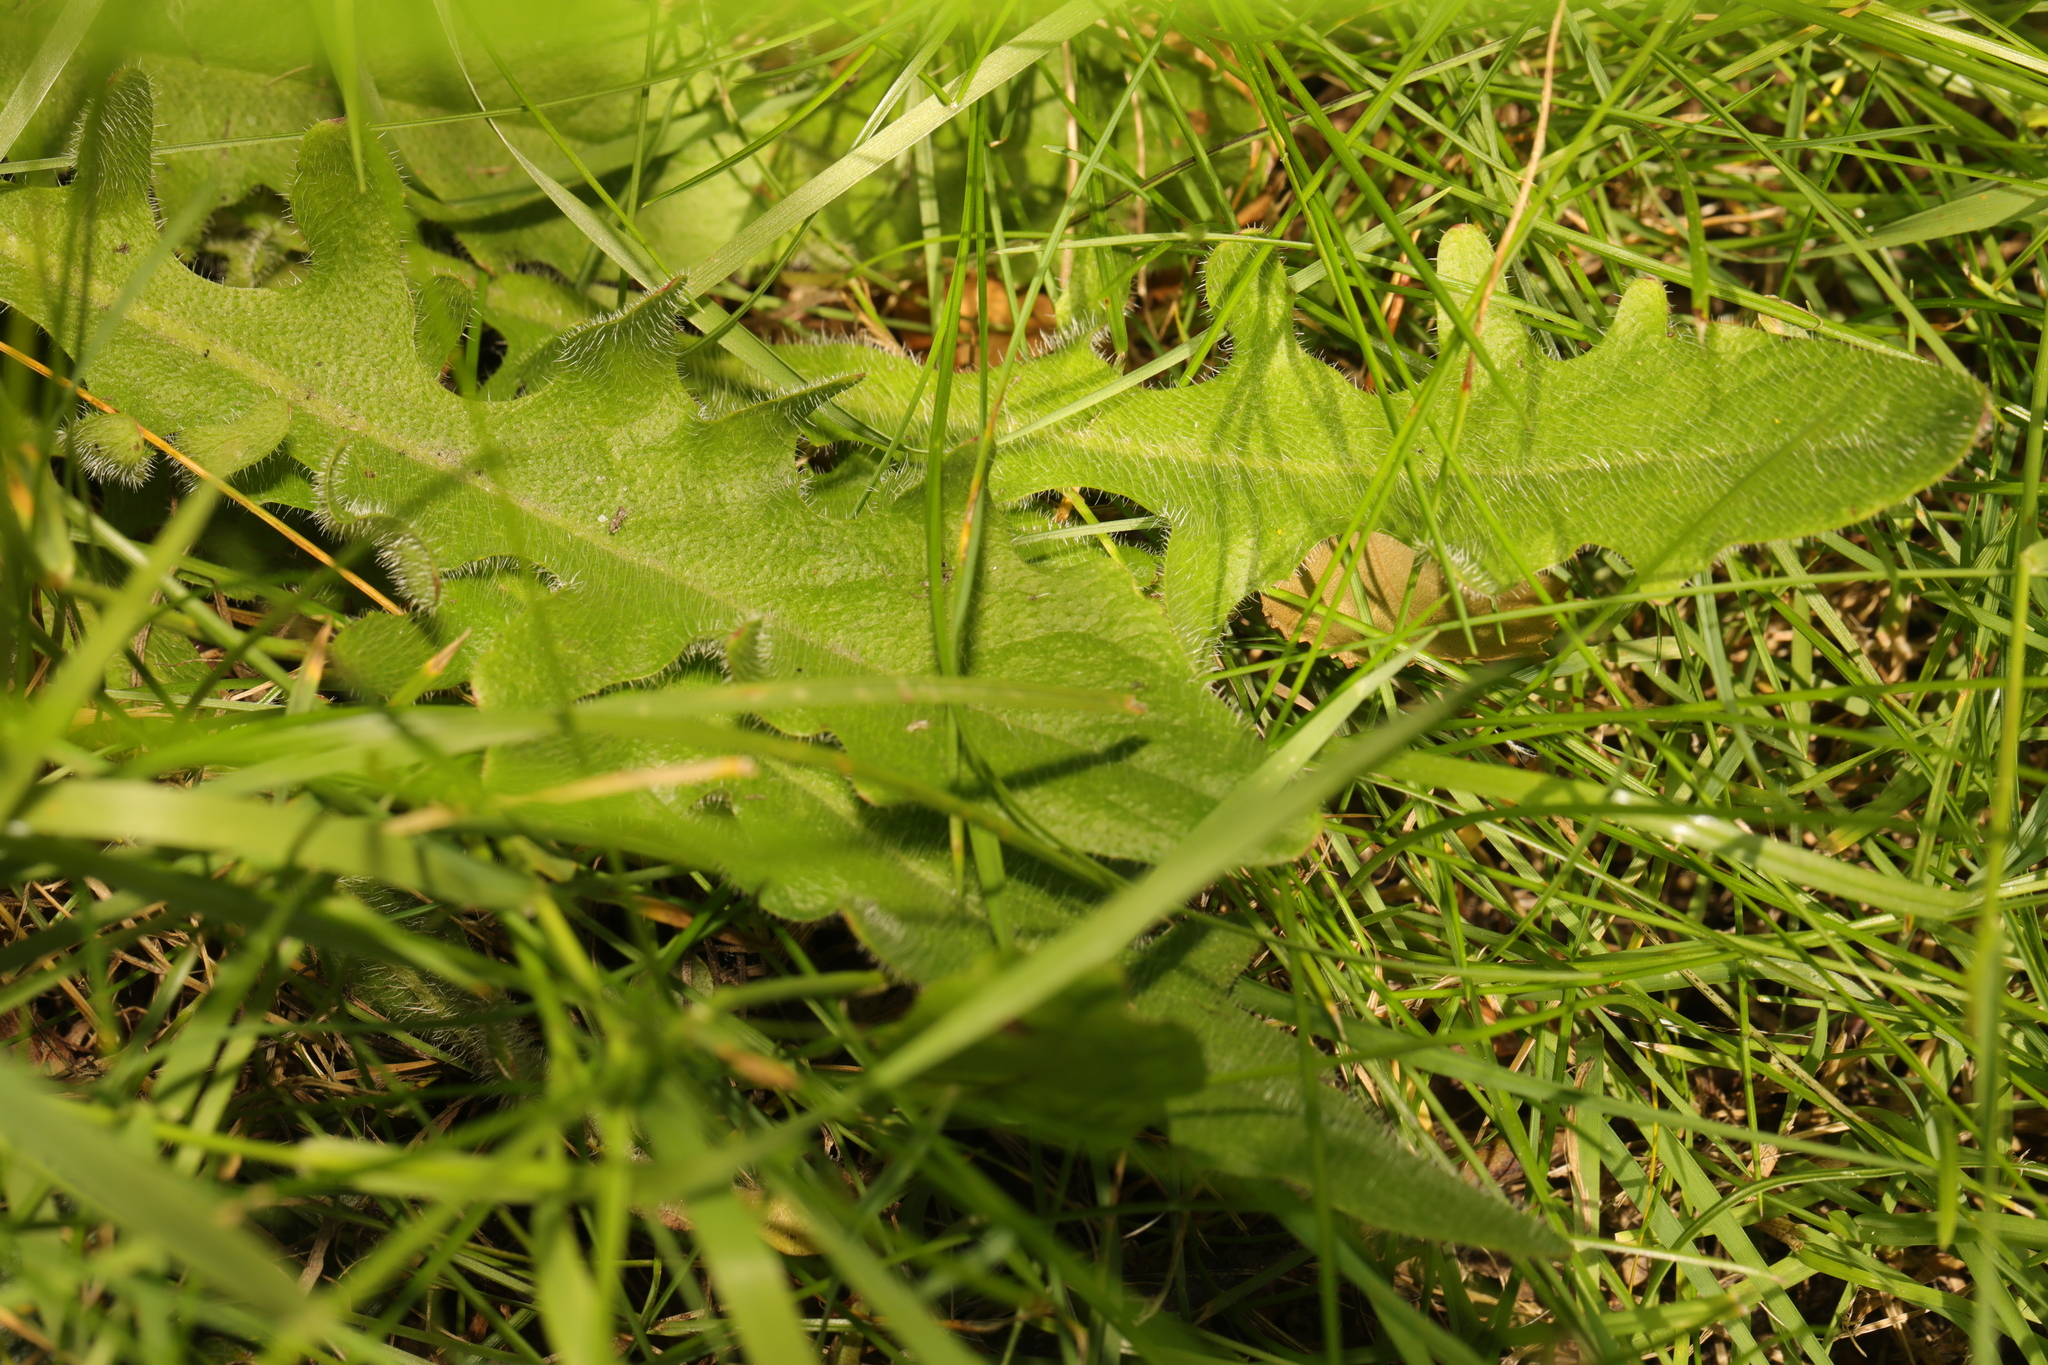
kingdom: Plantae
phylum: Tracheophyta
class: Magnoliopsida
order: Asterales
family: Asteraceae
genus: Hypochaeris
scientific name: Hypochaeris radicata
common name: Flatweed
